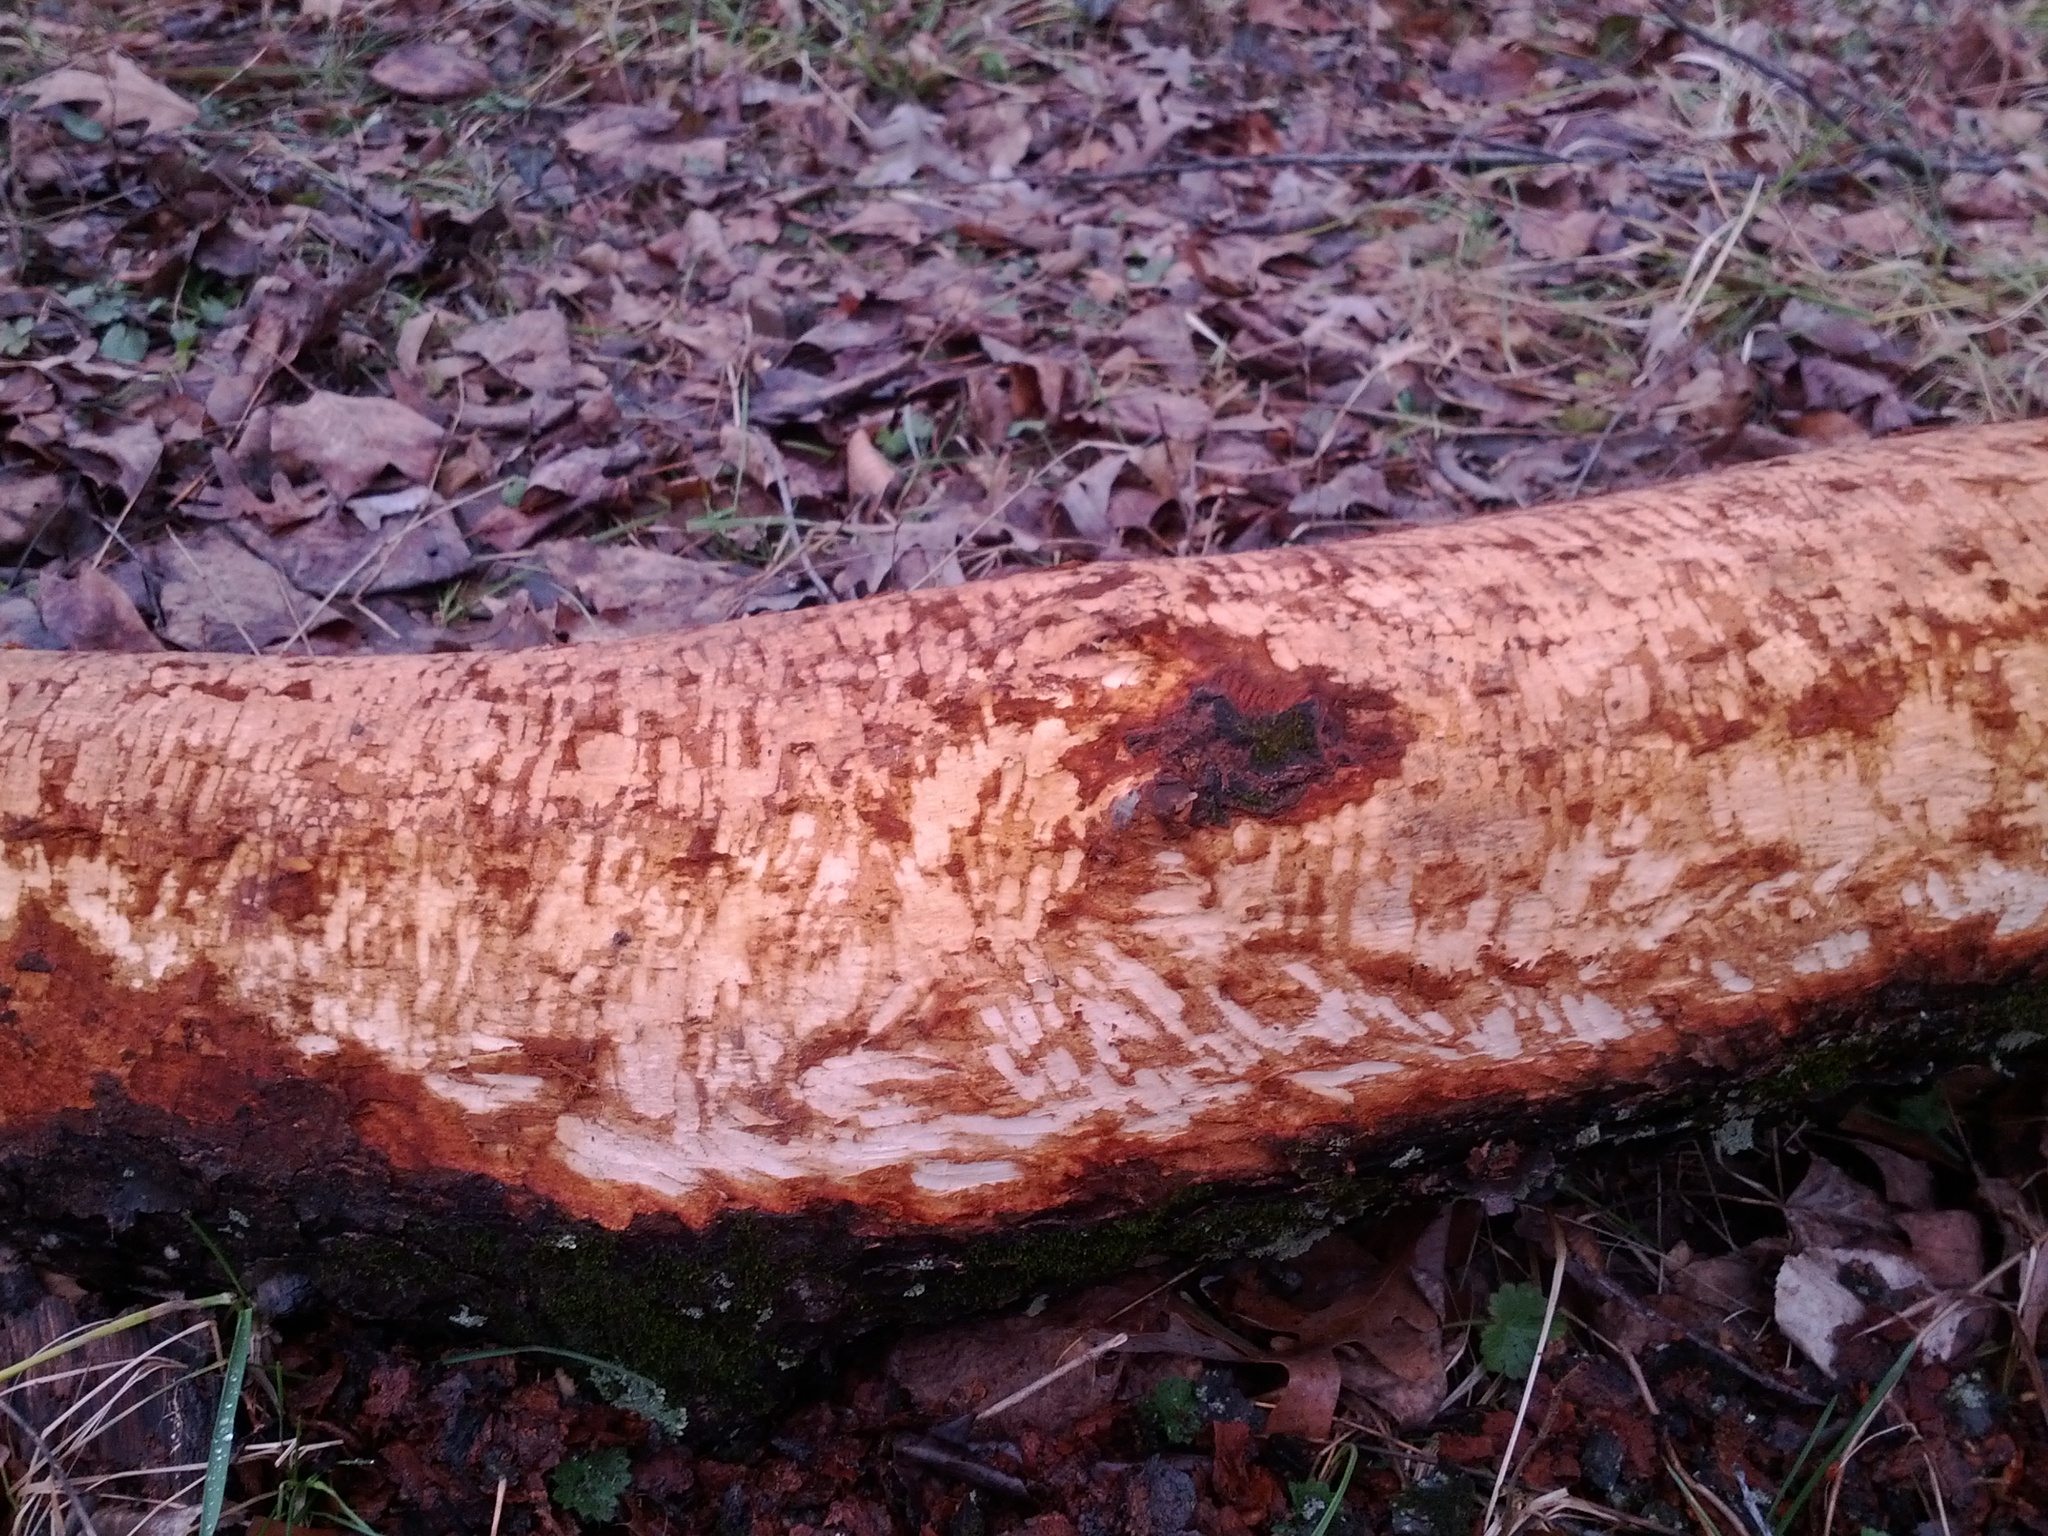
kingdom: Animalia
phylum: Chordata
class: Mammalia
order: Rodentia
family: Castoridae
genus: Castor
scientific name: Castor canadensis
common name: American beaver
